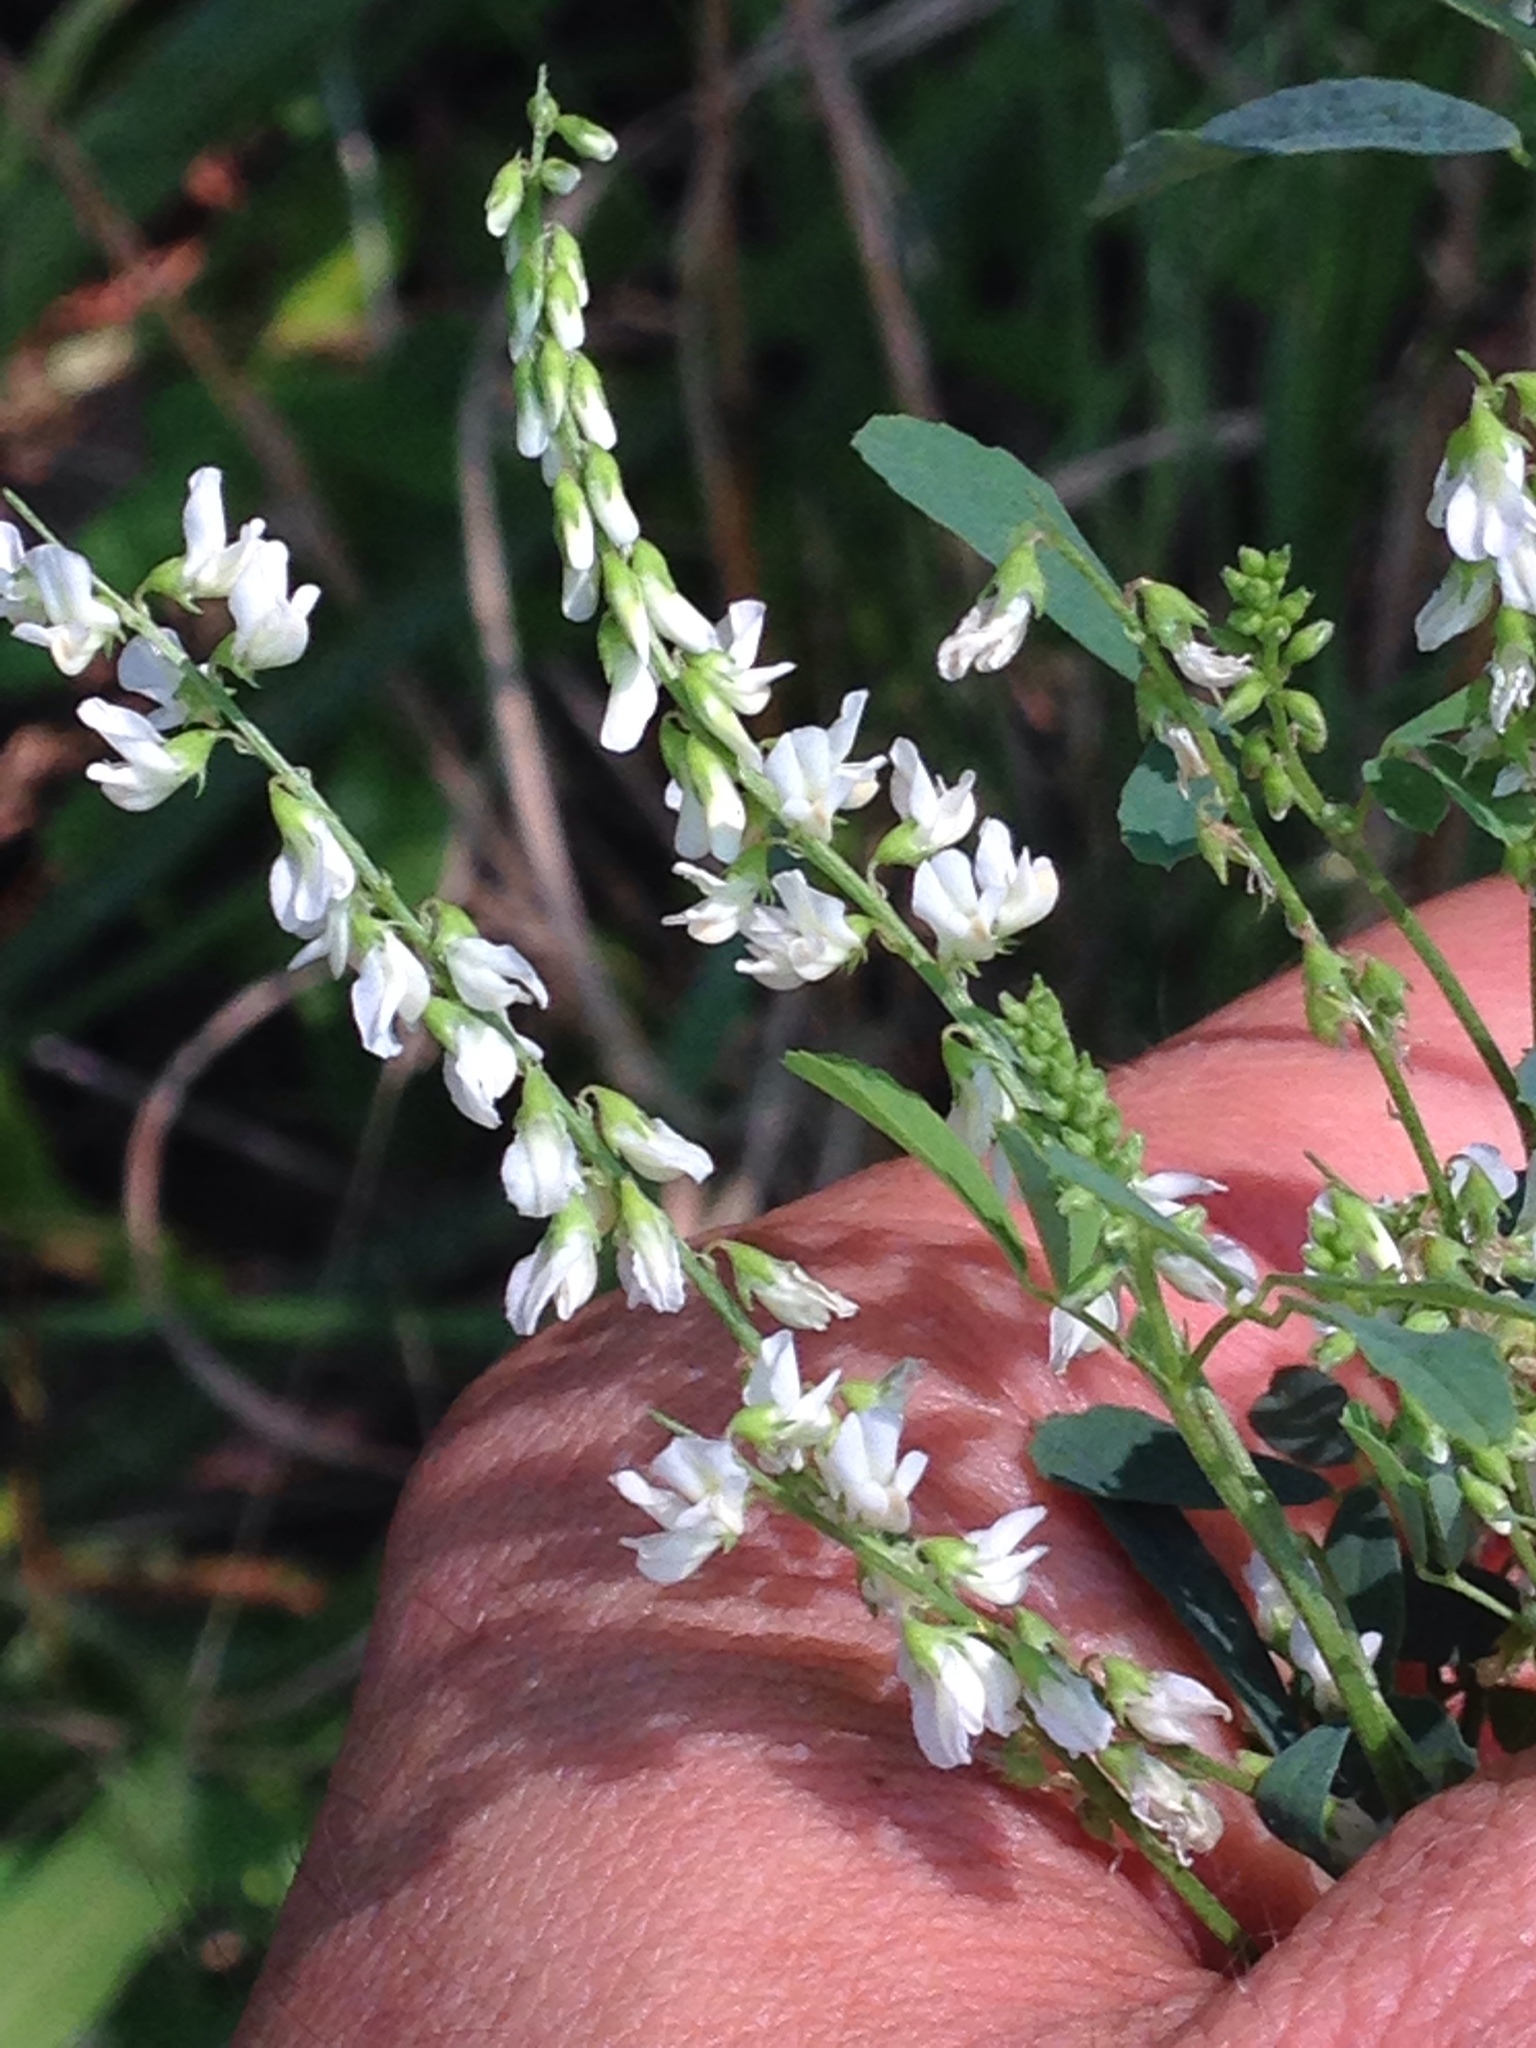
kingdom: Plantae
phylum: Tracheophyta
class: Magnoliopsida
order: Fabales
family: Fabaceae
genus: Melilotus
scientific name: Melilotus albus
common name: White melilot
